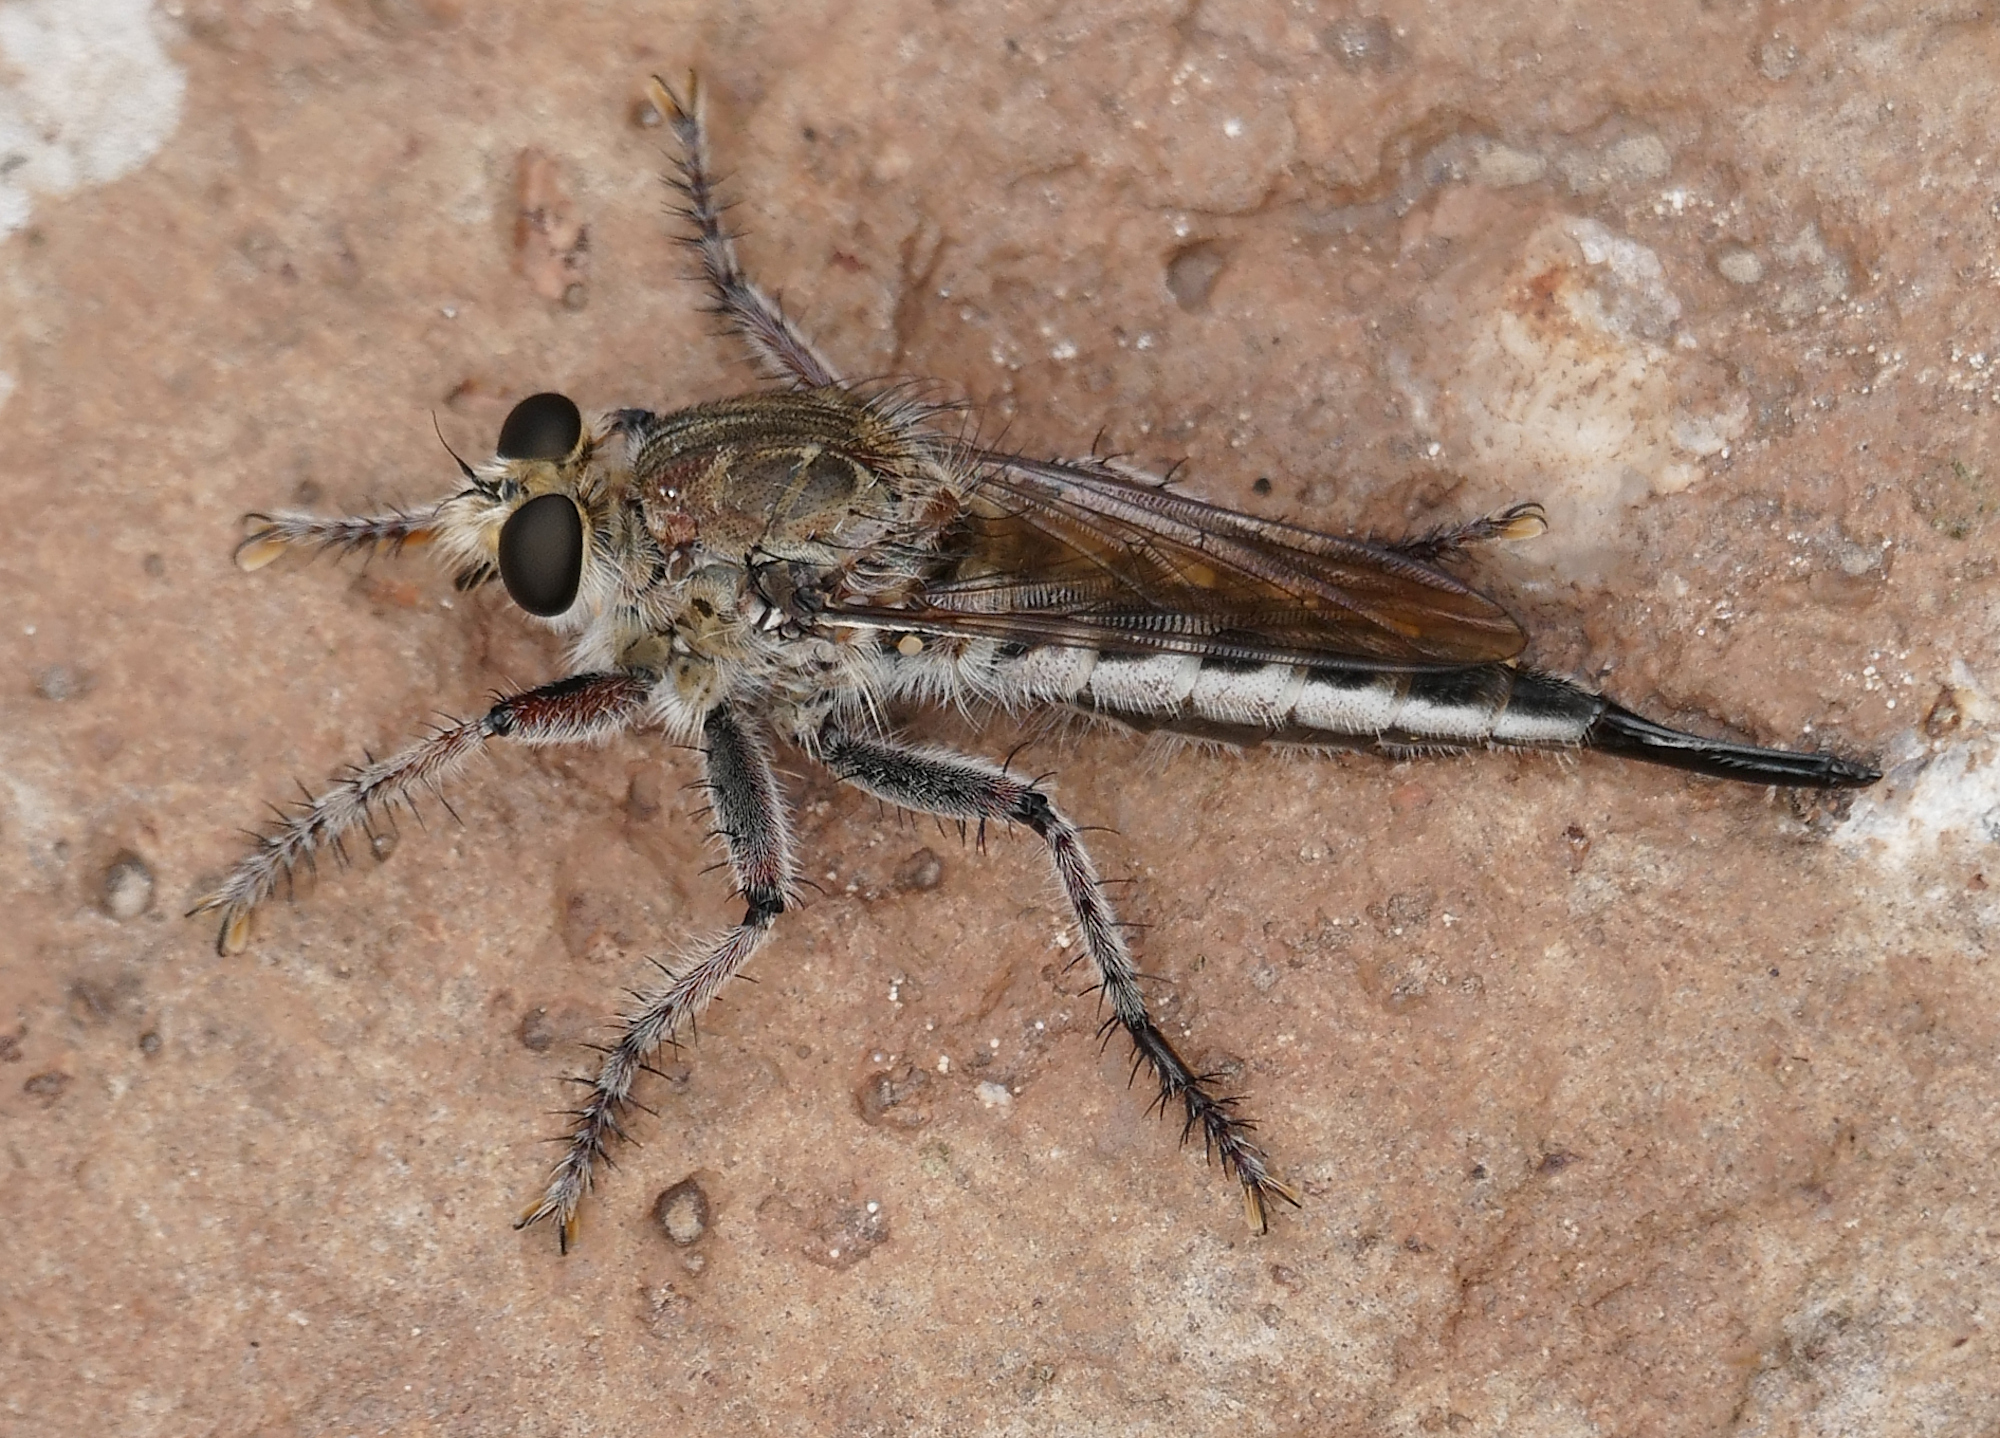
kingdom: Animalia
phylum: Arthropoda
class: Insecta
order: Diptera
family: Asilidae
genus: Efferia
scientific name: Efferia
